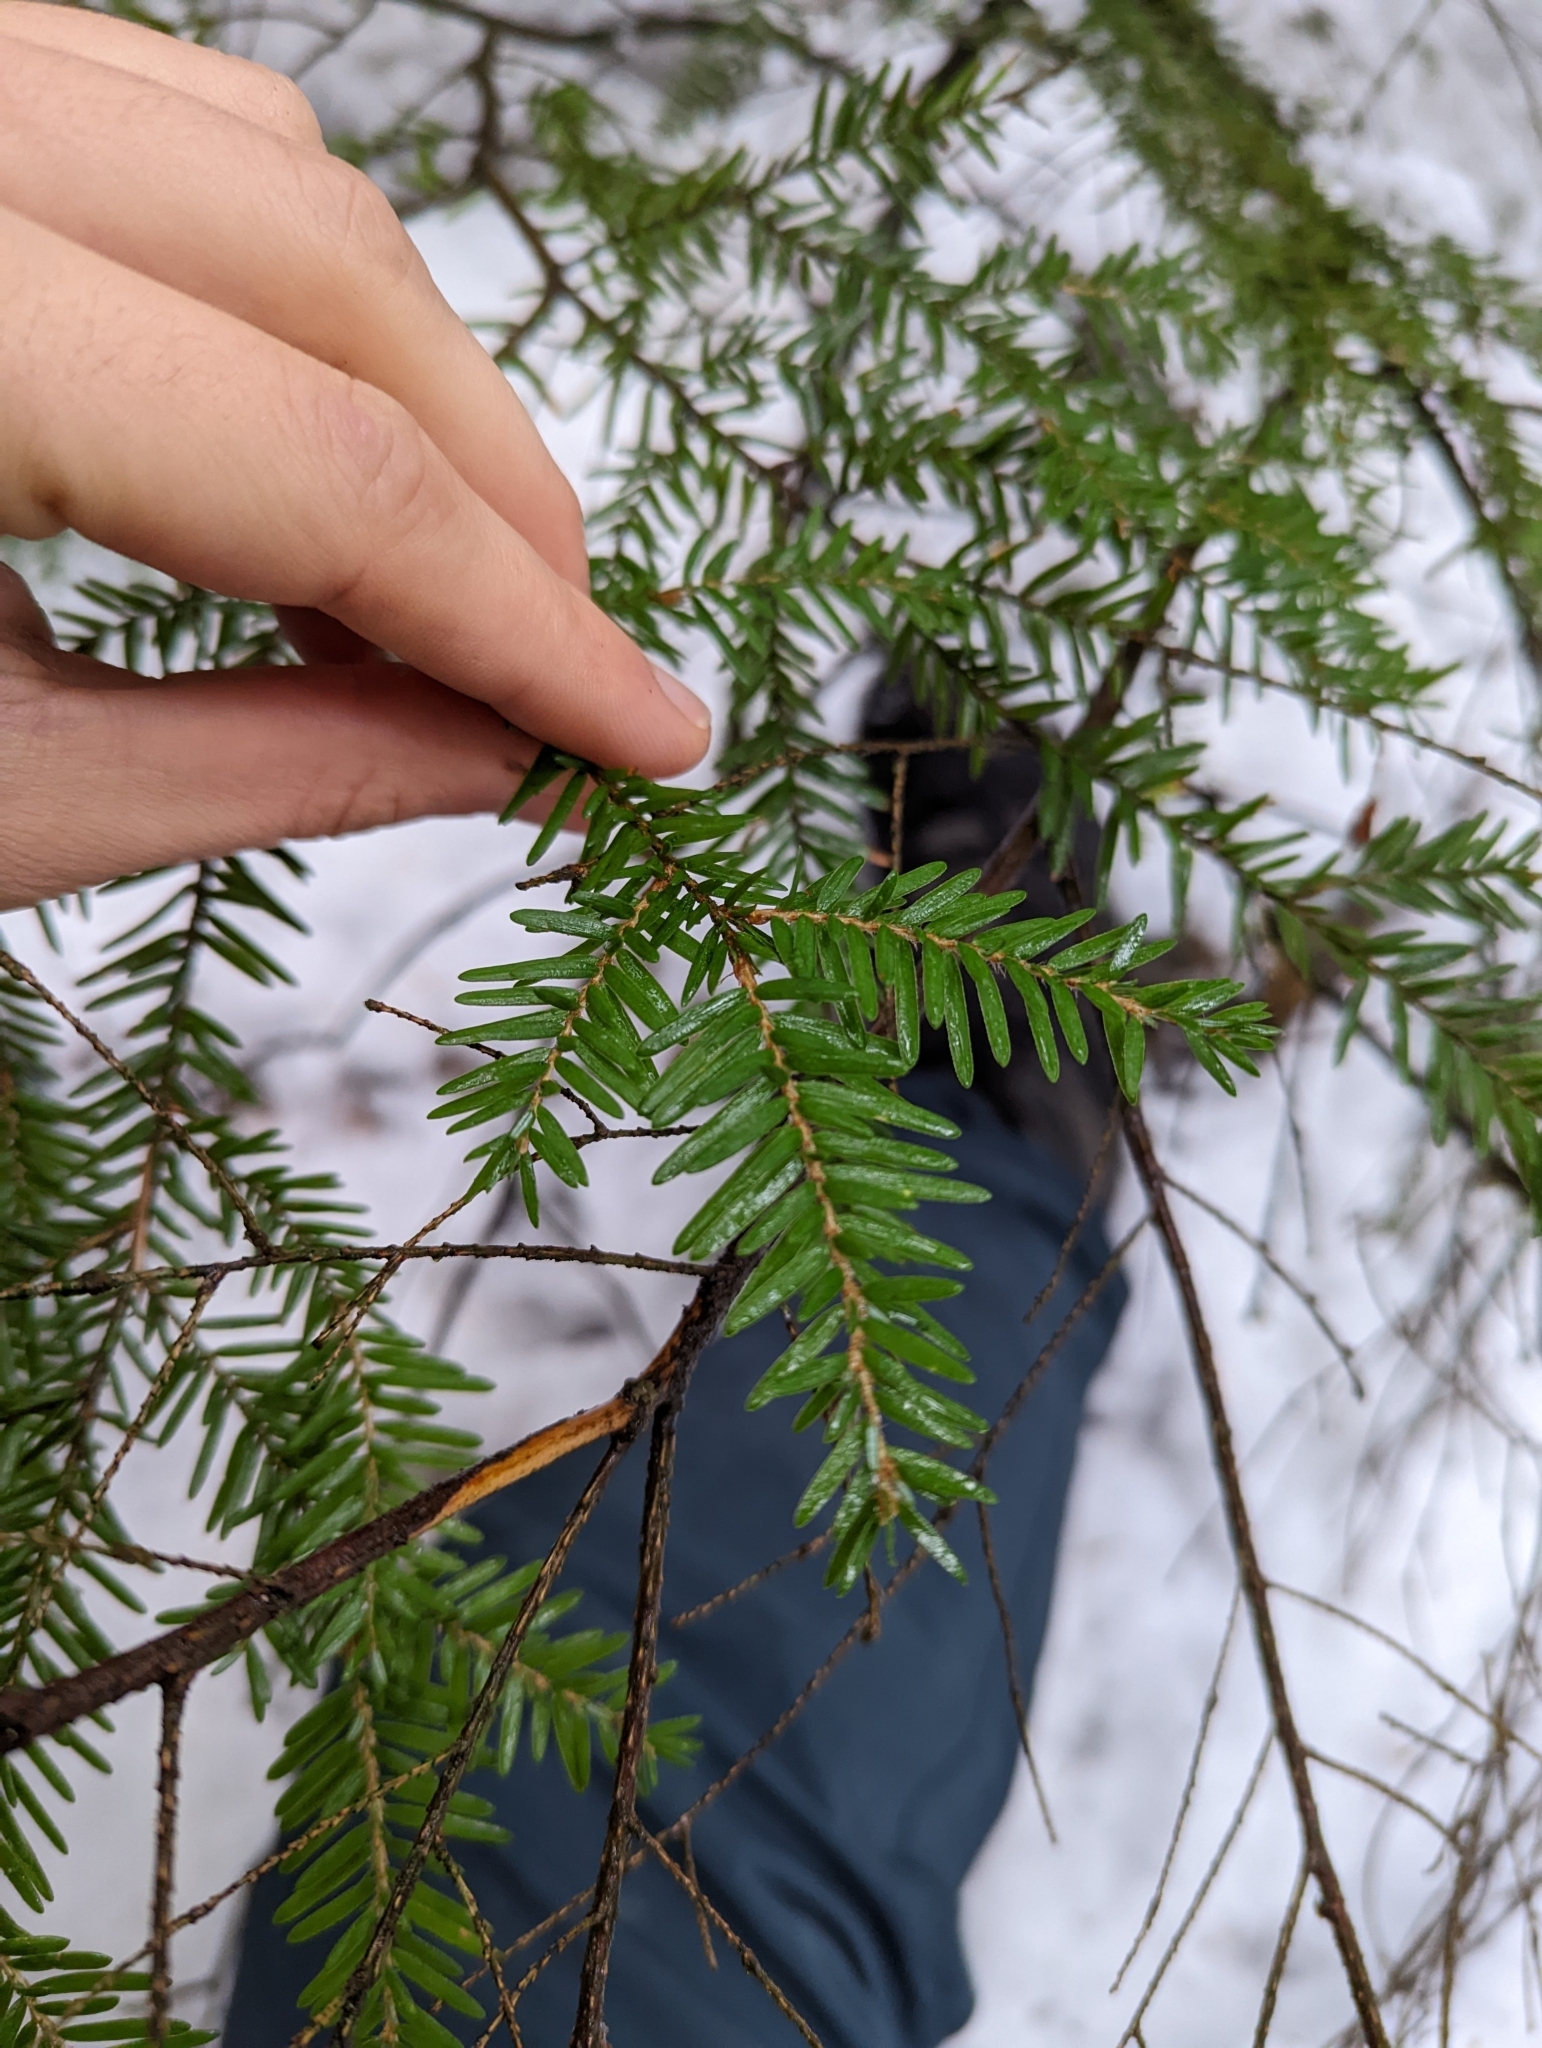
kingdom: Plantae
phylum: Tracheophyta
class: Pinopsida
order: Pinales
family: Pinaceae
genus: Tsuga
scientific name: Tsuga heterophylla
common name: Western hemlock
